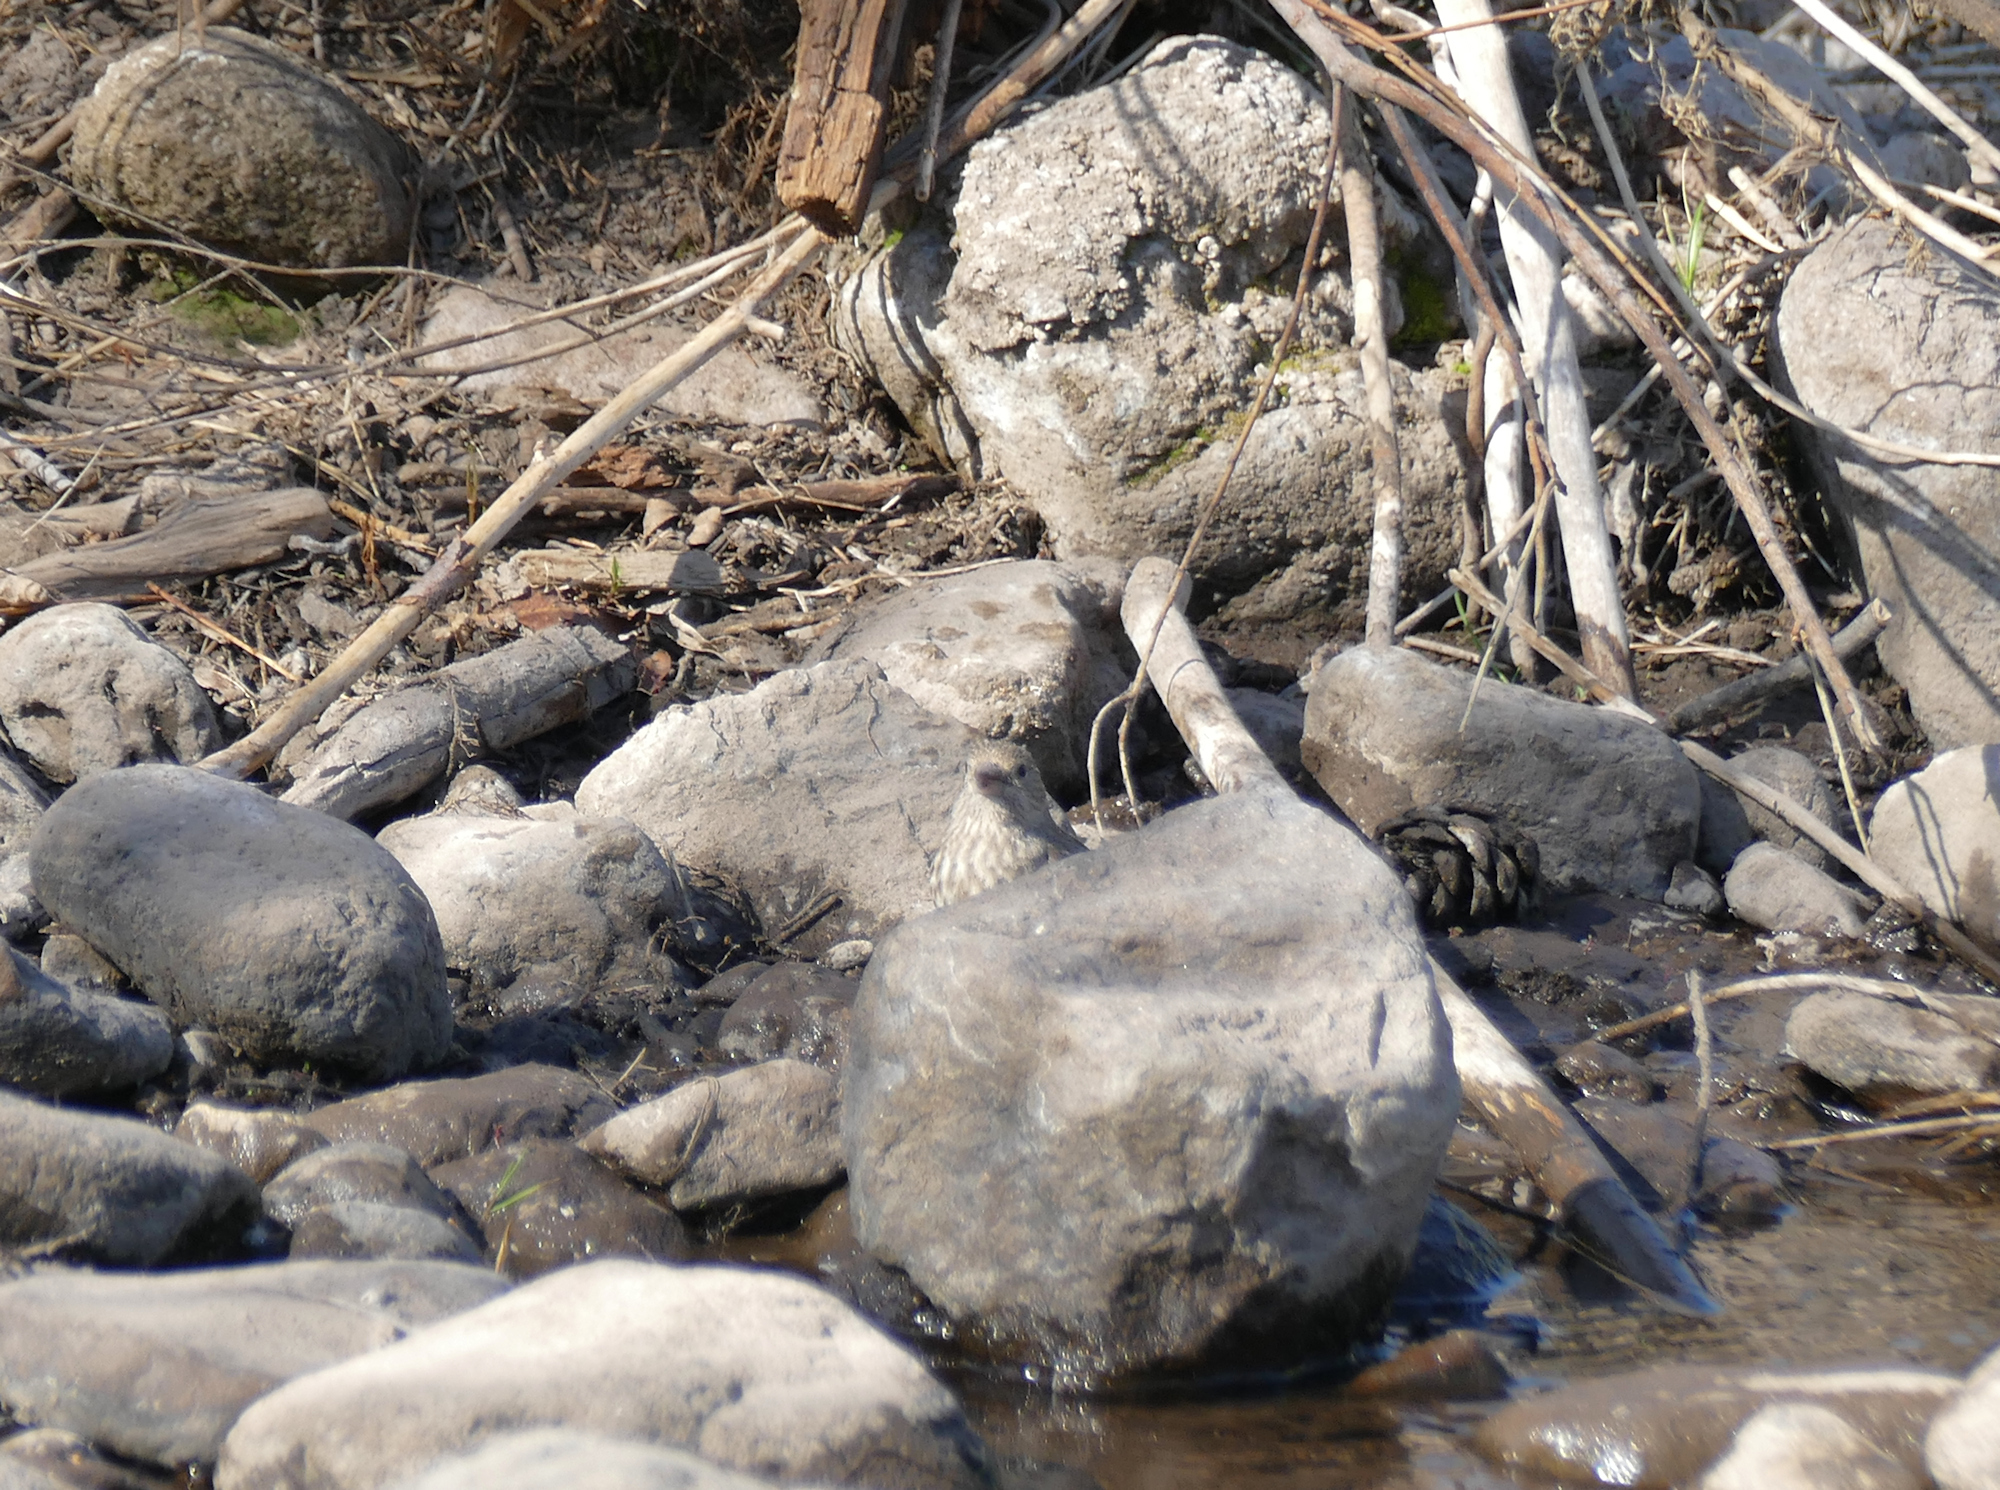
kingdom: Animalia
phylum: Chordata
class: Aves
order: Passeriformes
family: Fringillidae
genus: Haemorhous
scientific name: Haemorhous mexicanus
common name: House finch
